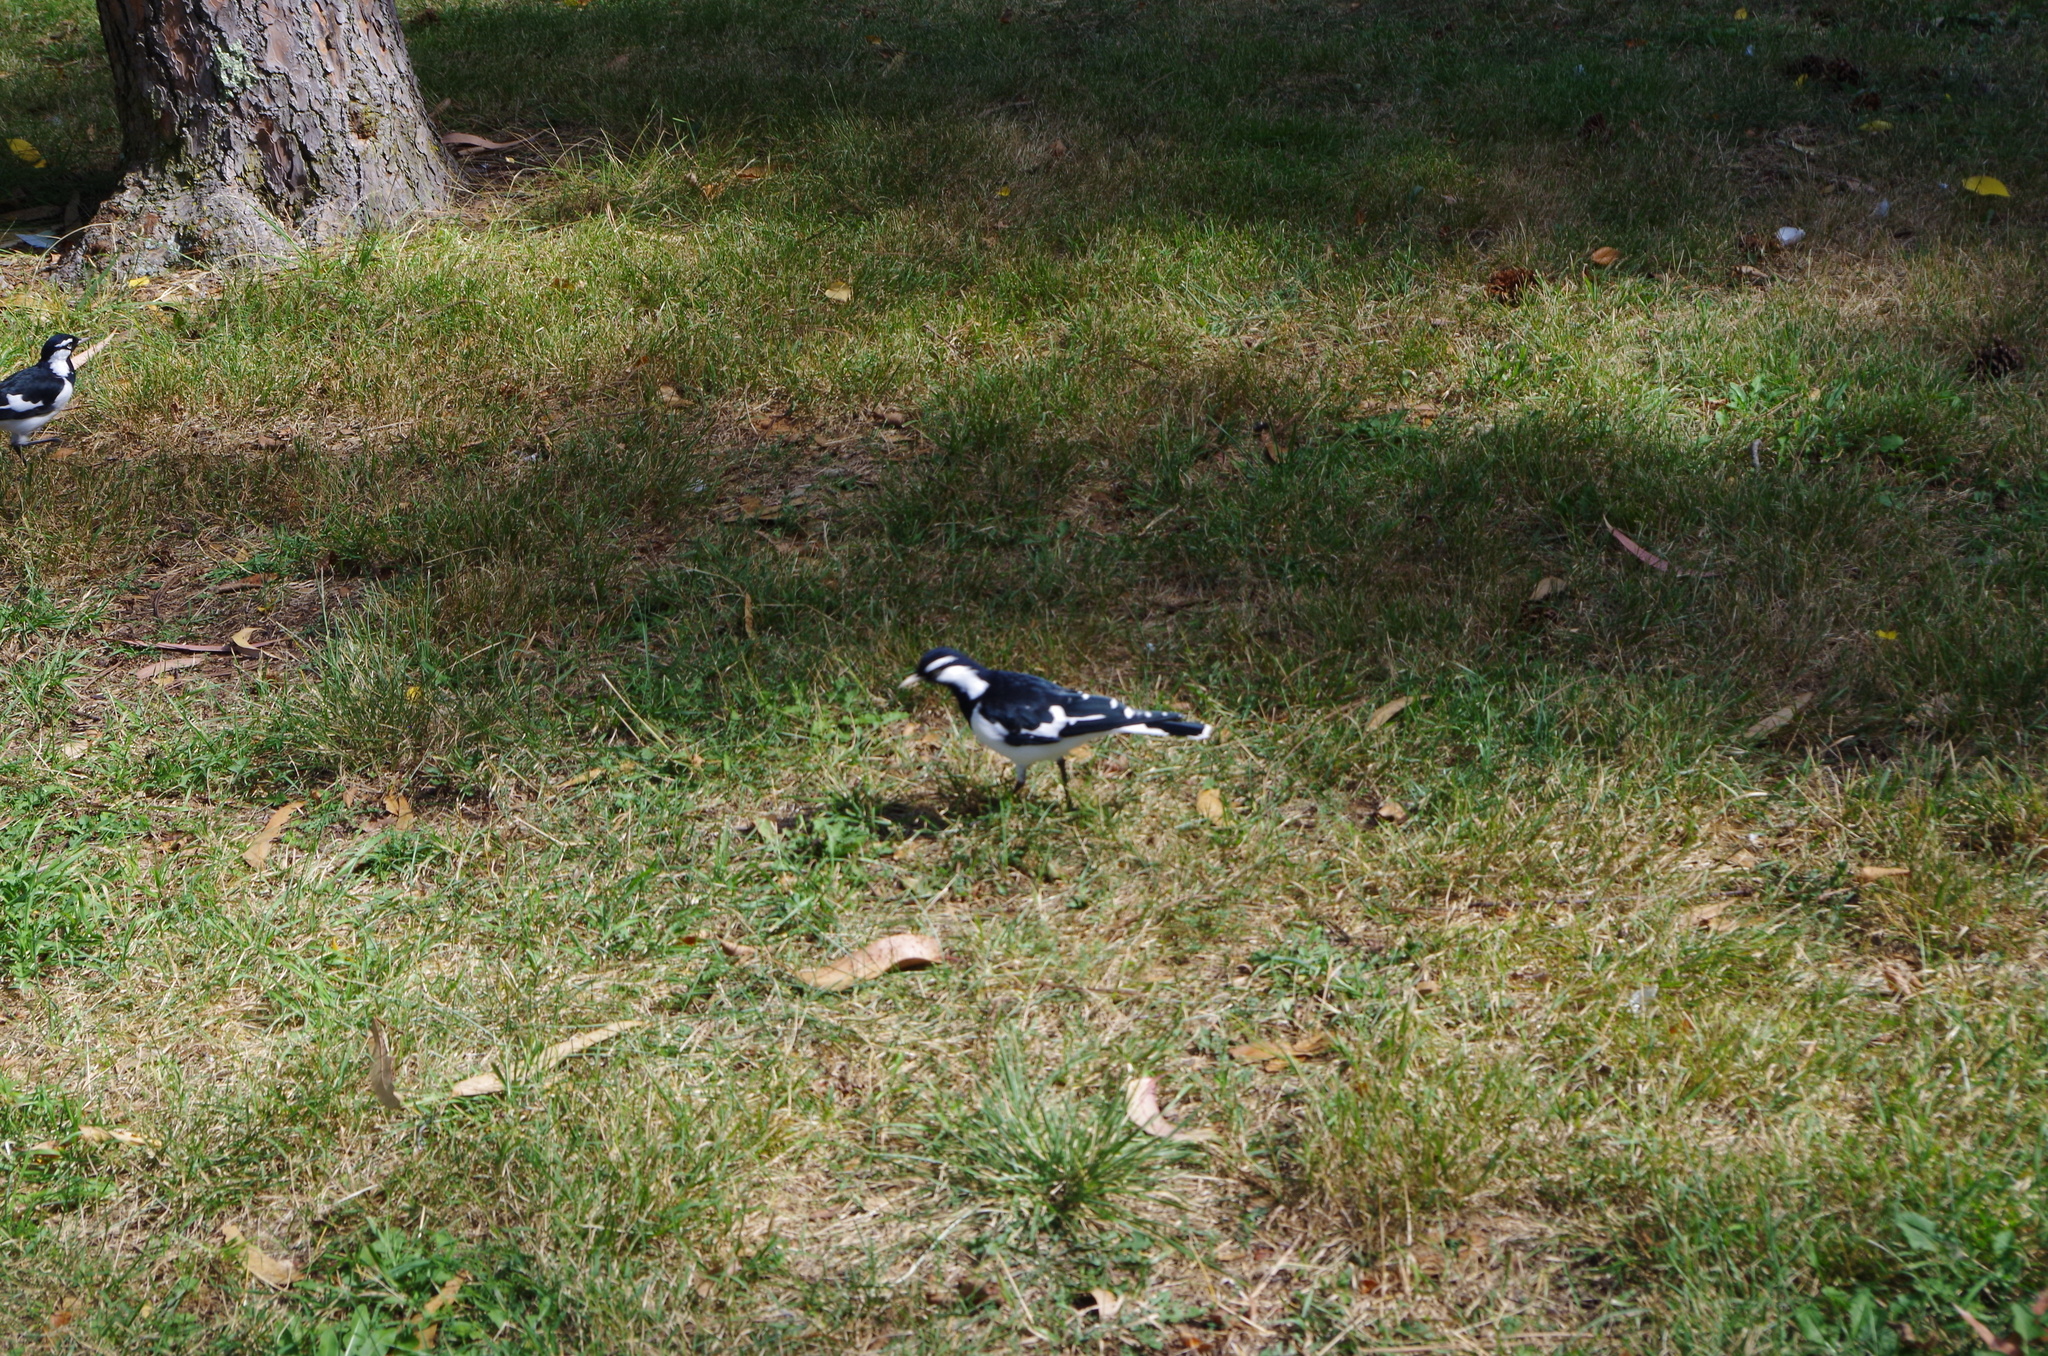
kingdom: Animalia
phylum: Chordata
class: Aves
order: Passeriformes
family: Monarchidae
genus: Grallina
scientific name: Grallina cyanoleuca
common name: Magpie-lark
